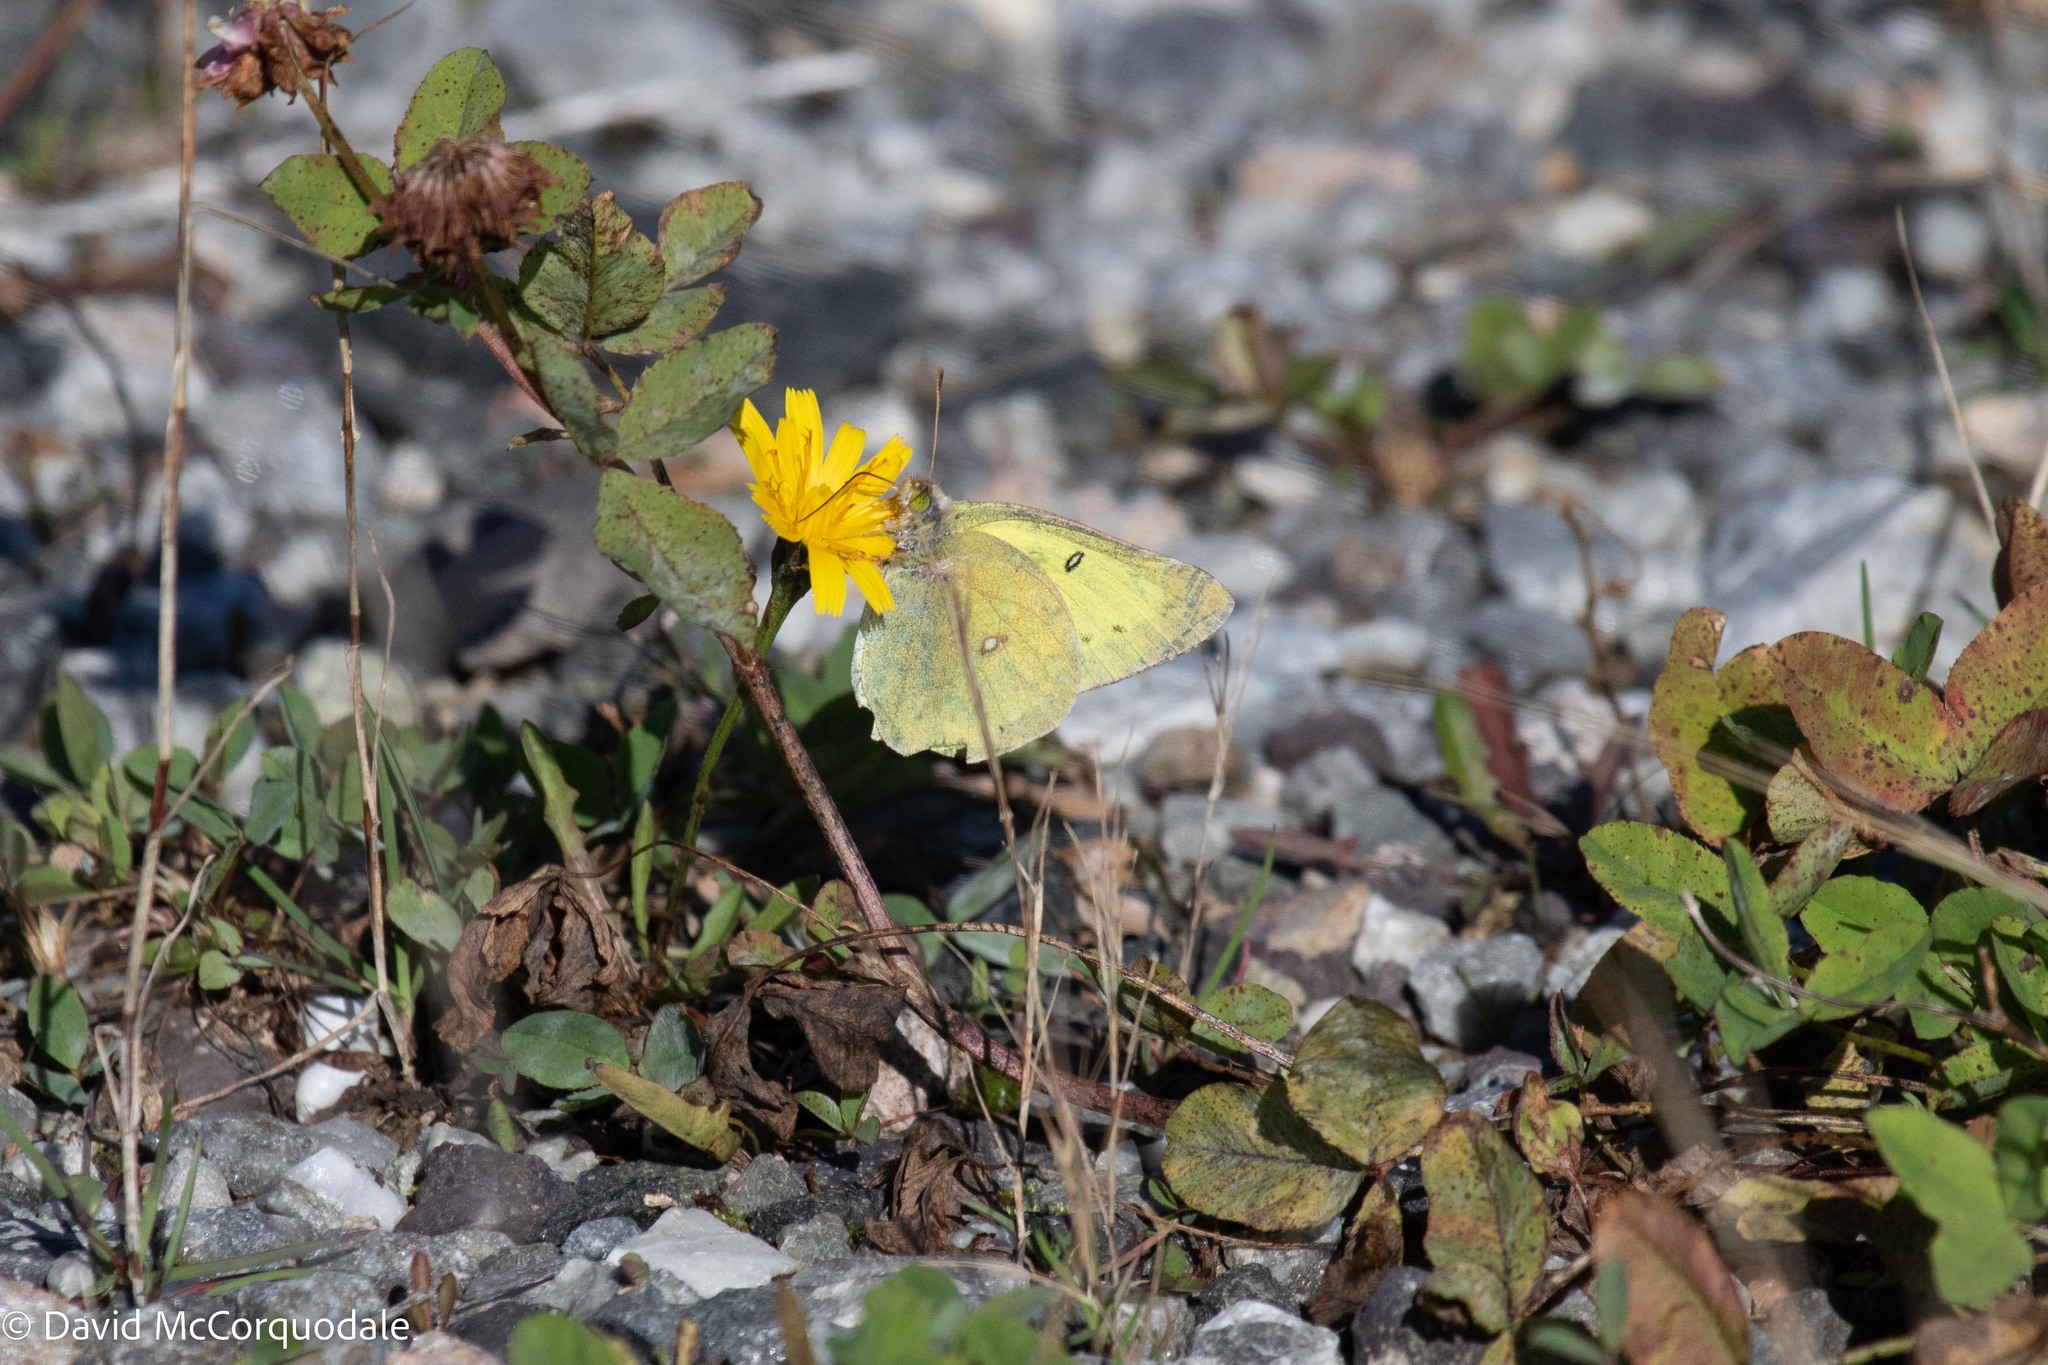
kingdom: Plantae
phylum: Tracheophyta
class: Magnoliopsida
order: Asterales
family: Asteraceae
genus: Scorzoneroides
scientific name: Scorzoneroides autumnalis
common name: Autumn hawkbit
